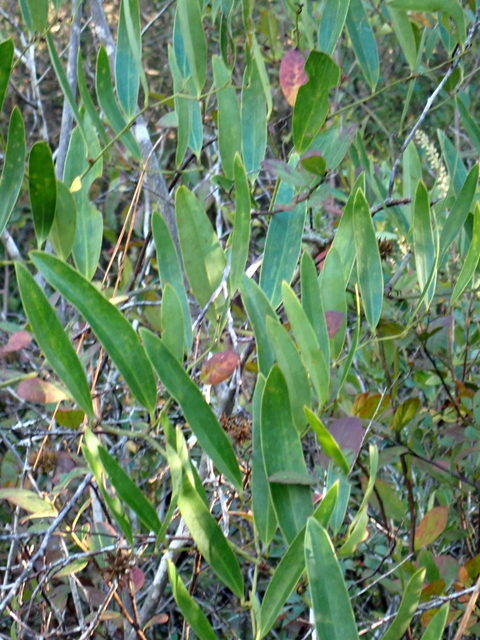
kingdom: Plantae
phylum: Tracheophyta
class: Liliopsida
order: Liliales
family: Smilacaceae
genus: Smilax
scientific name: Smilax laurifolia
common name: Bamboovine
